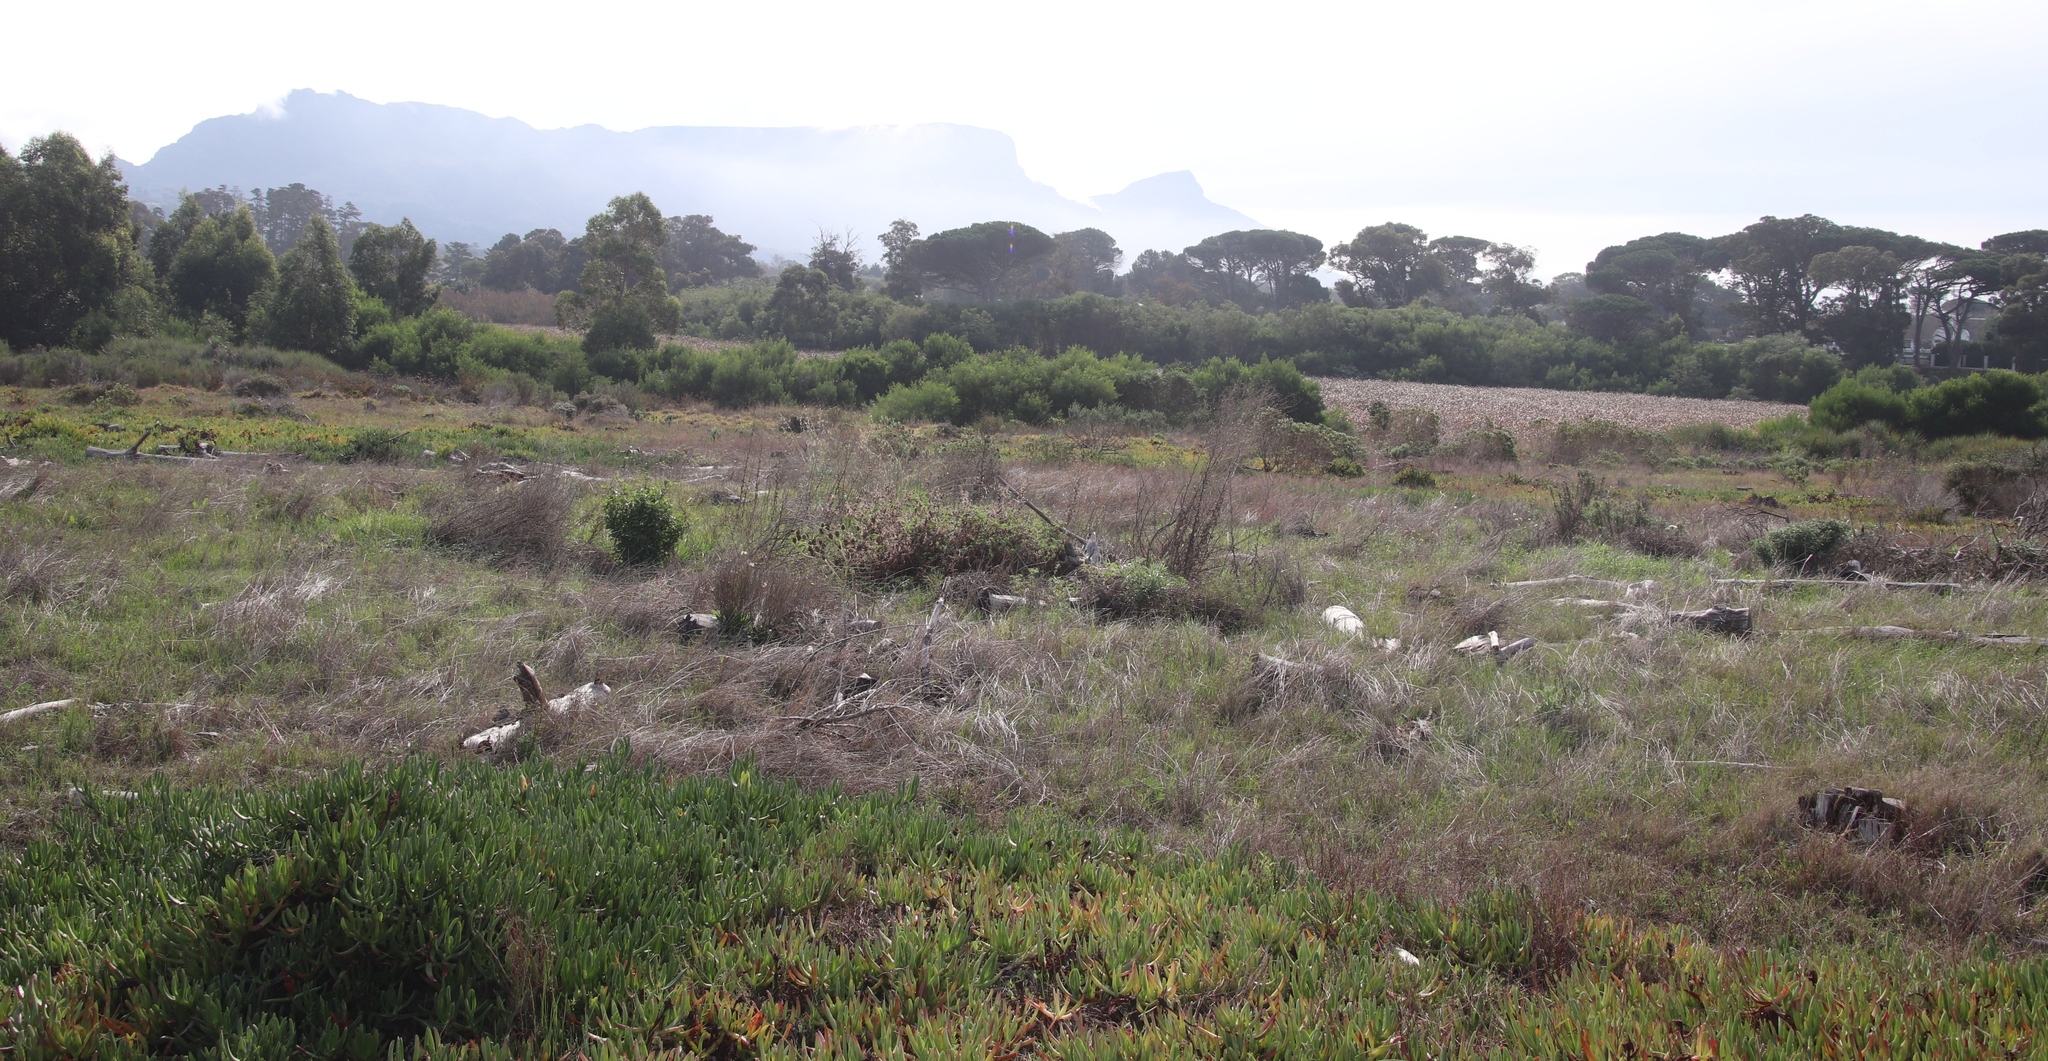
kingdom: Plantae
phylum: Tracheophyta
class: Magnoliopsida
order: Fabales
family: Fabaceae
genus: Acacia
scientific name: Acacia longifolia
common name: Sydney golden wattle
